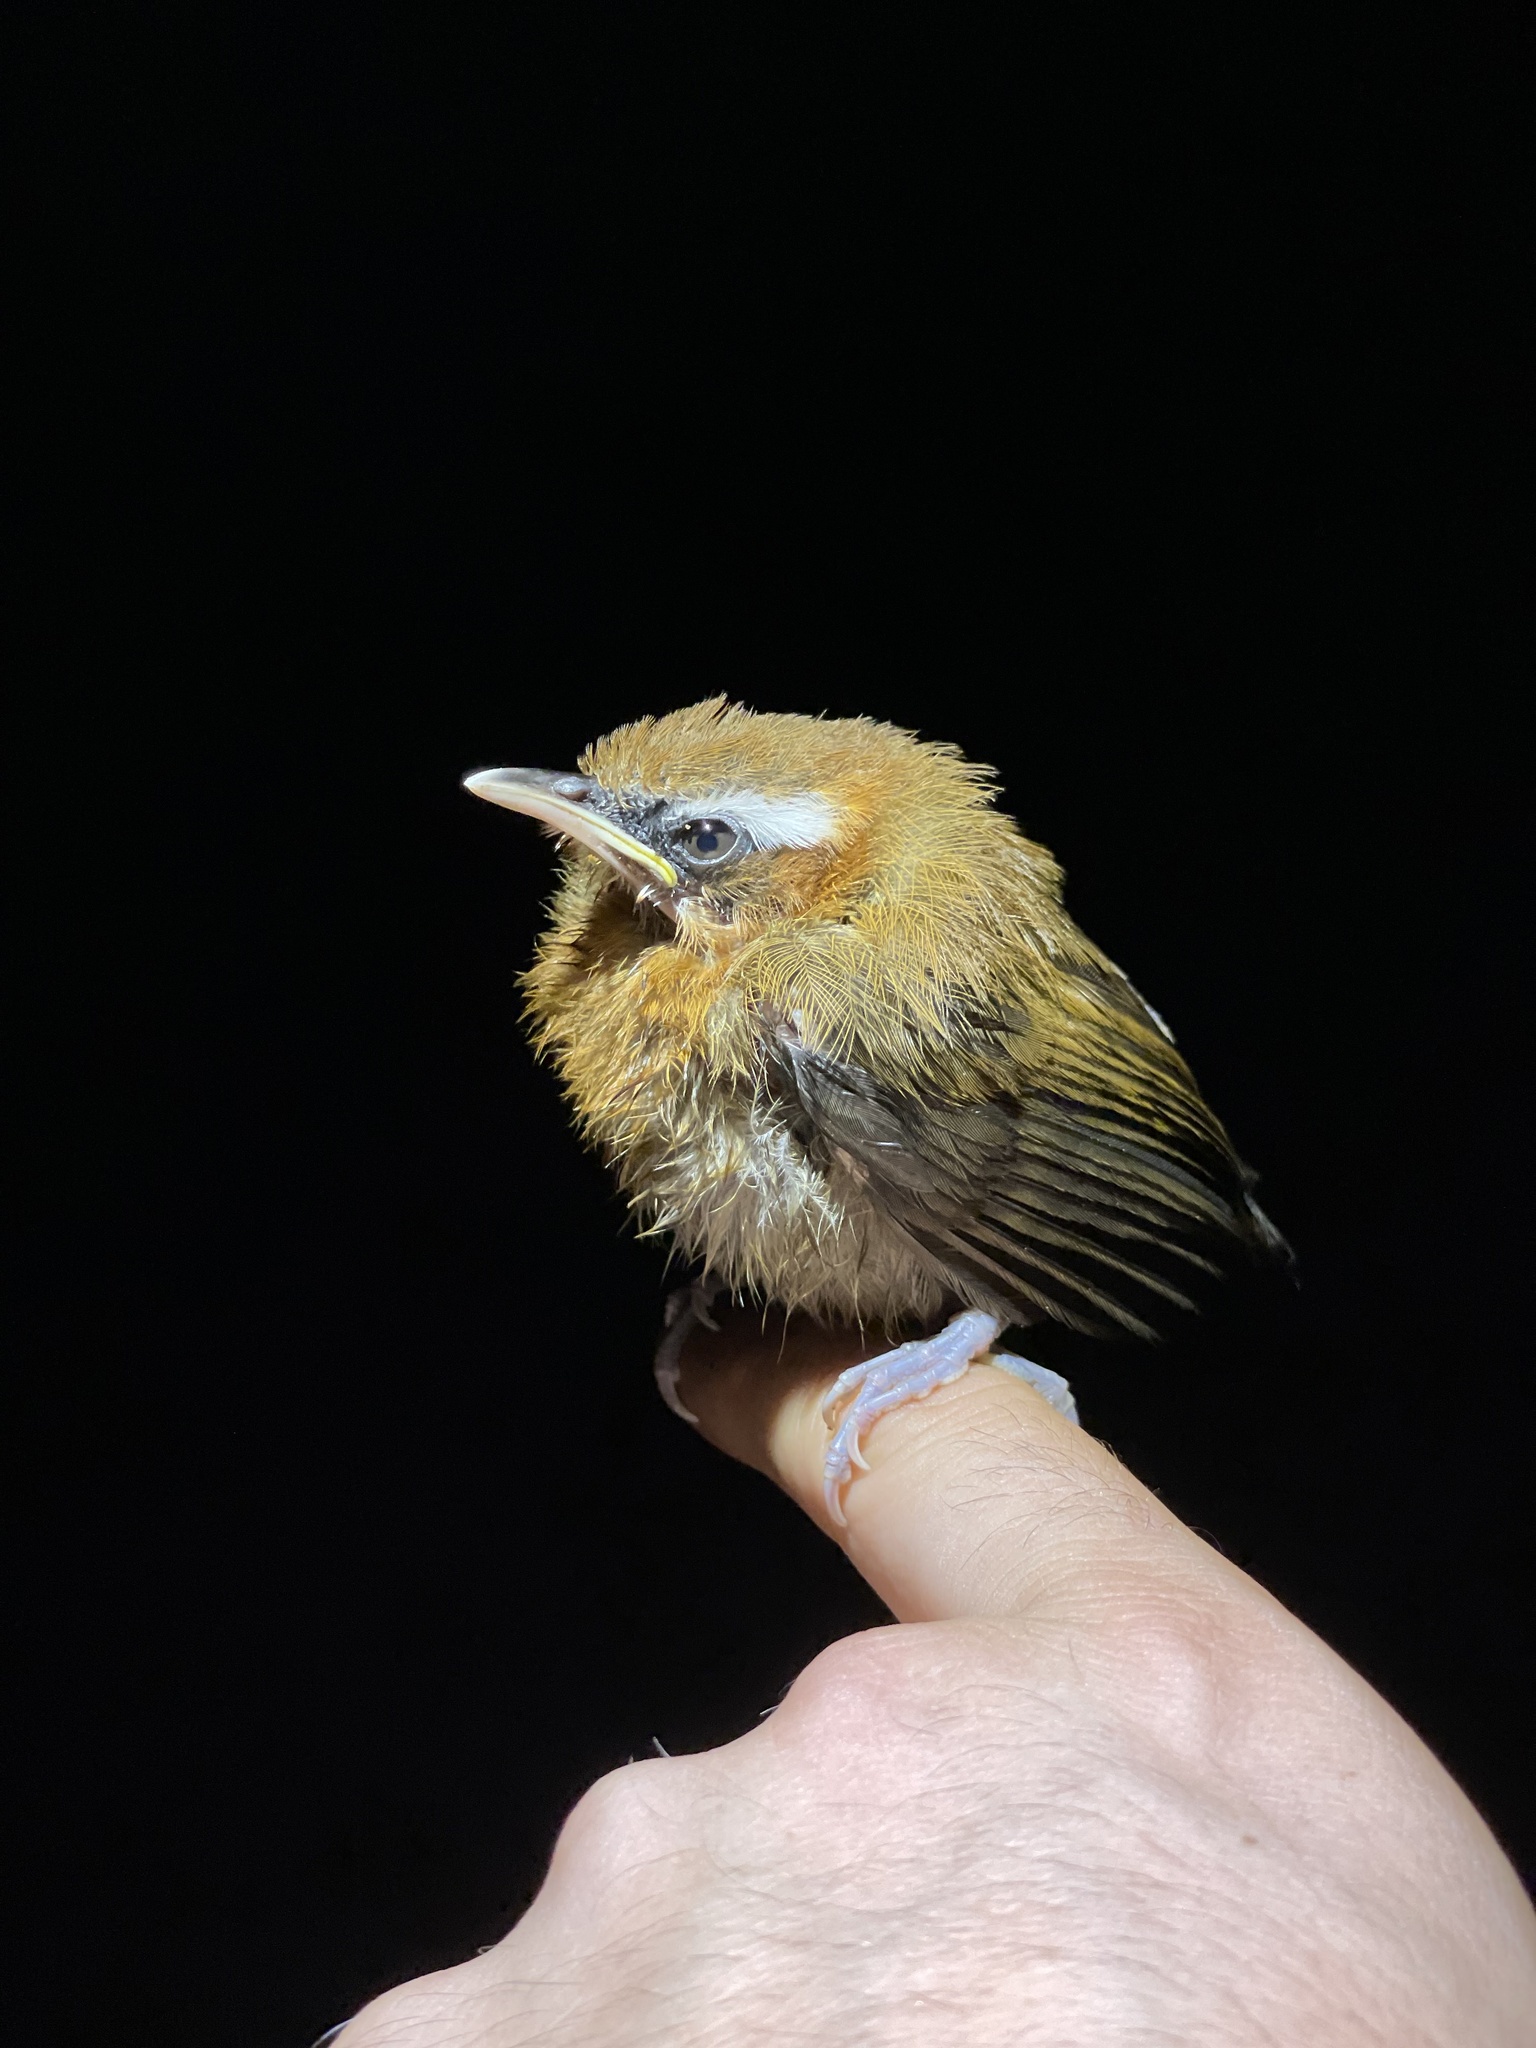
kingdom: Animalia
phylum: Chordata
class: Aves
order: Passeriformes
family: Timaliidae
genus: Pomatorhinus
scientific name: Pomatorhinus ruficollis
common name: Streak-breasted scimitar babbler
